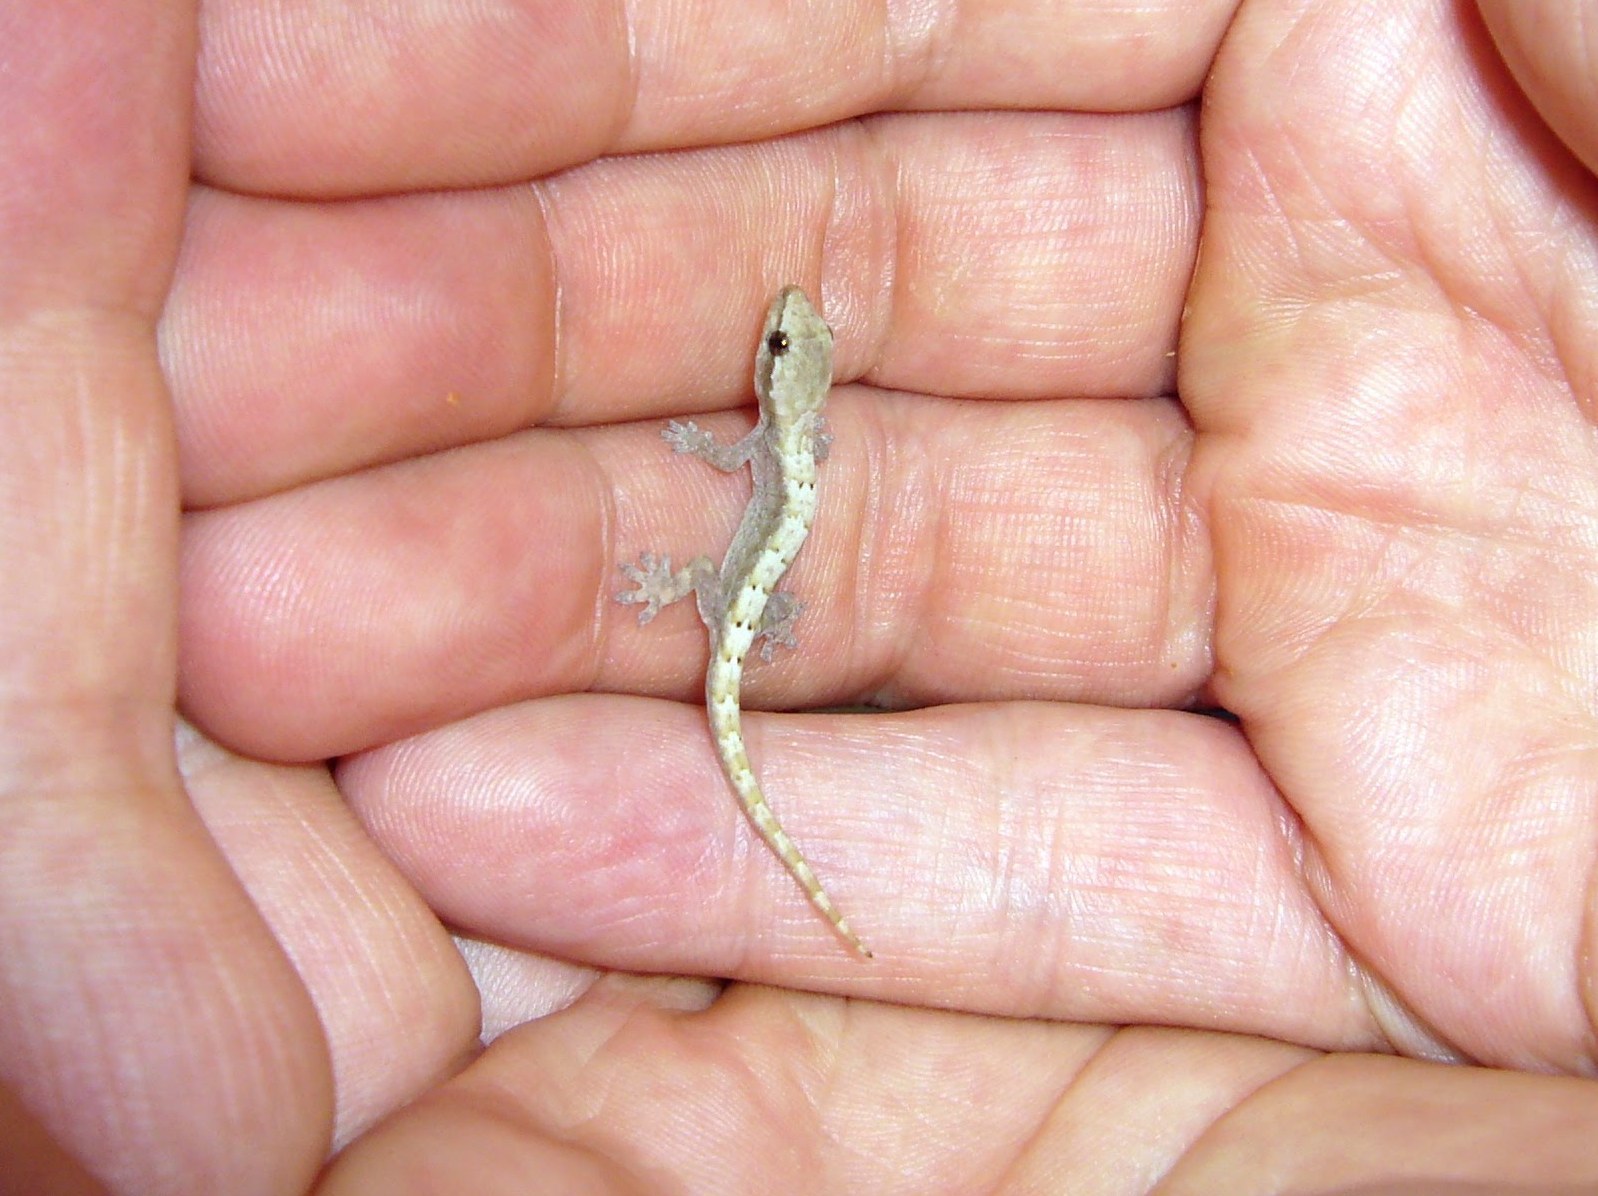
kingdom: Animalia
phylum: Chordata
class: Squamata
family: Gekkonidae
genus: Lepidodactylus
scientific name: Lepidodactylus lugubris
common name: Mourning gecko
